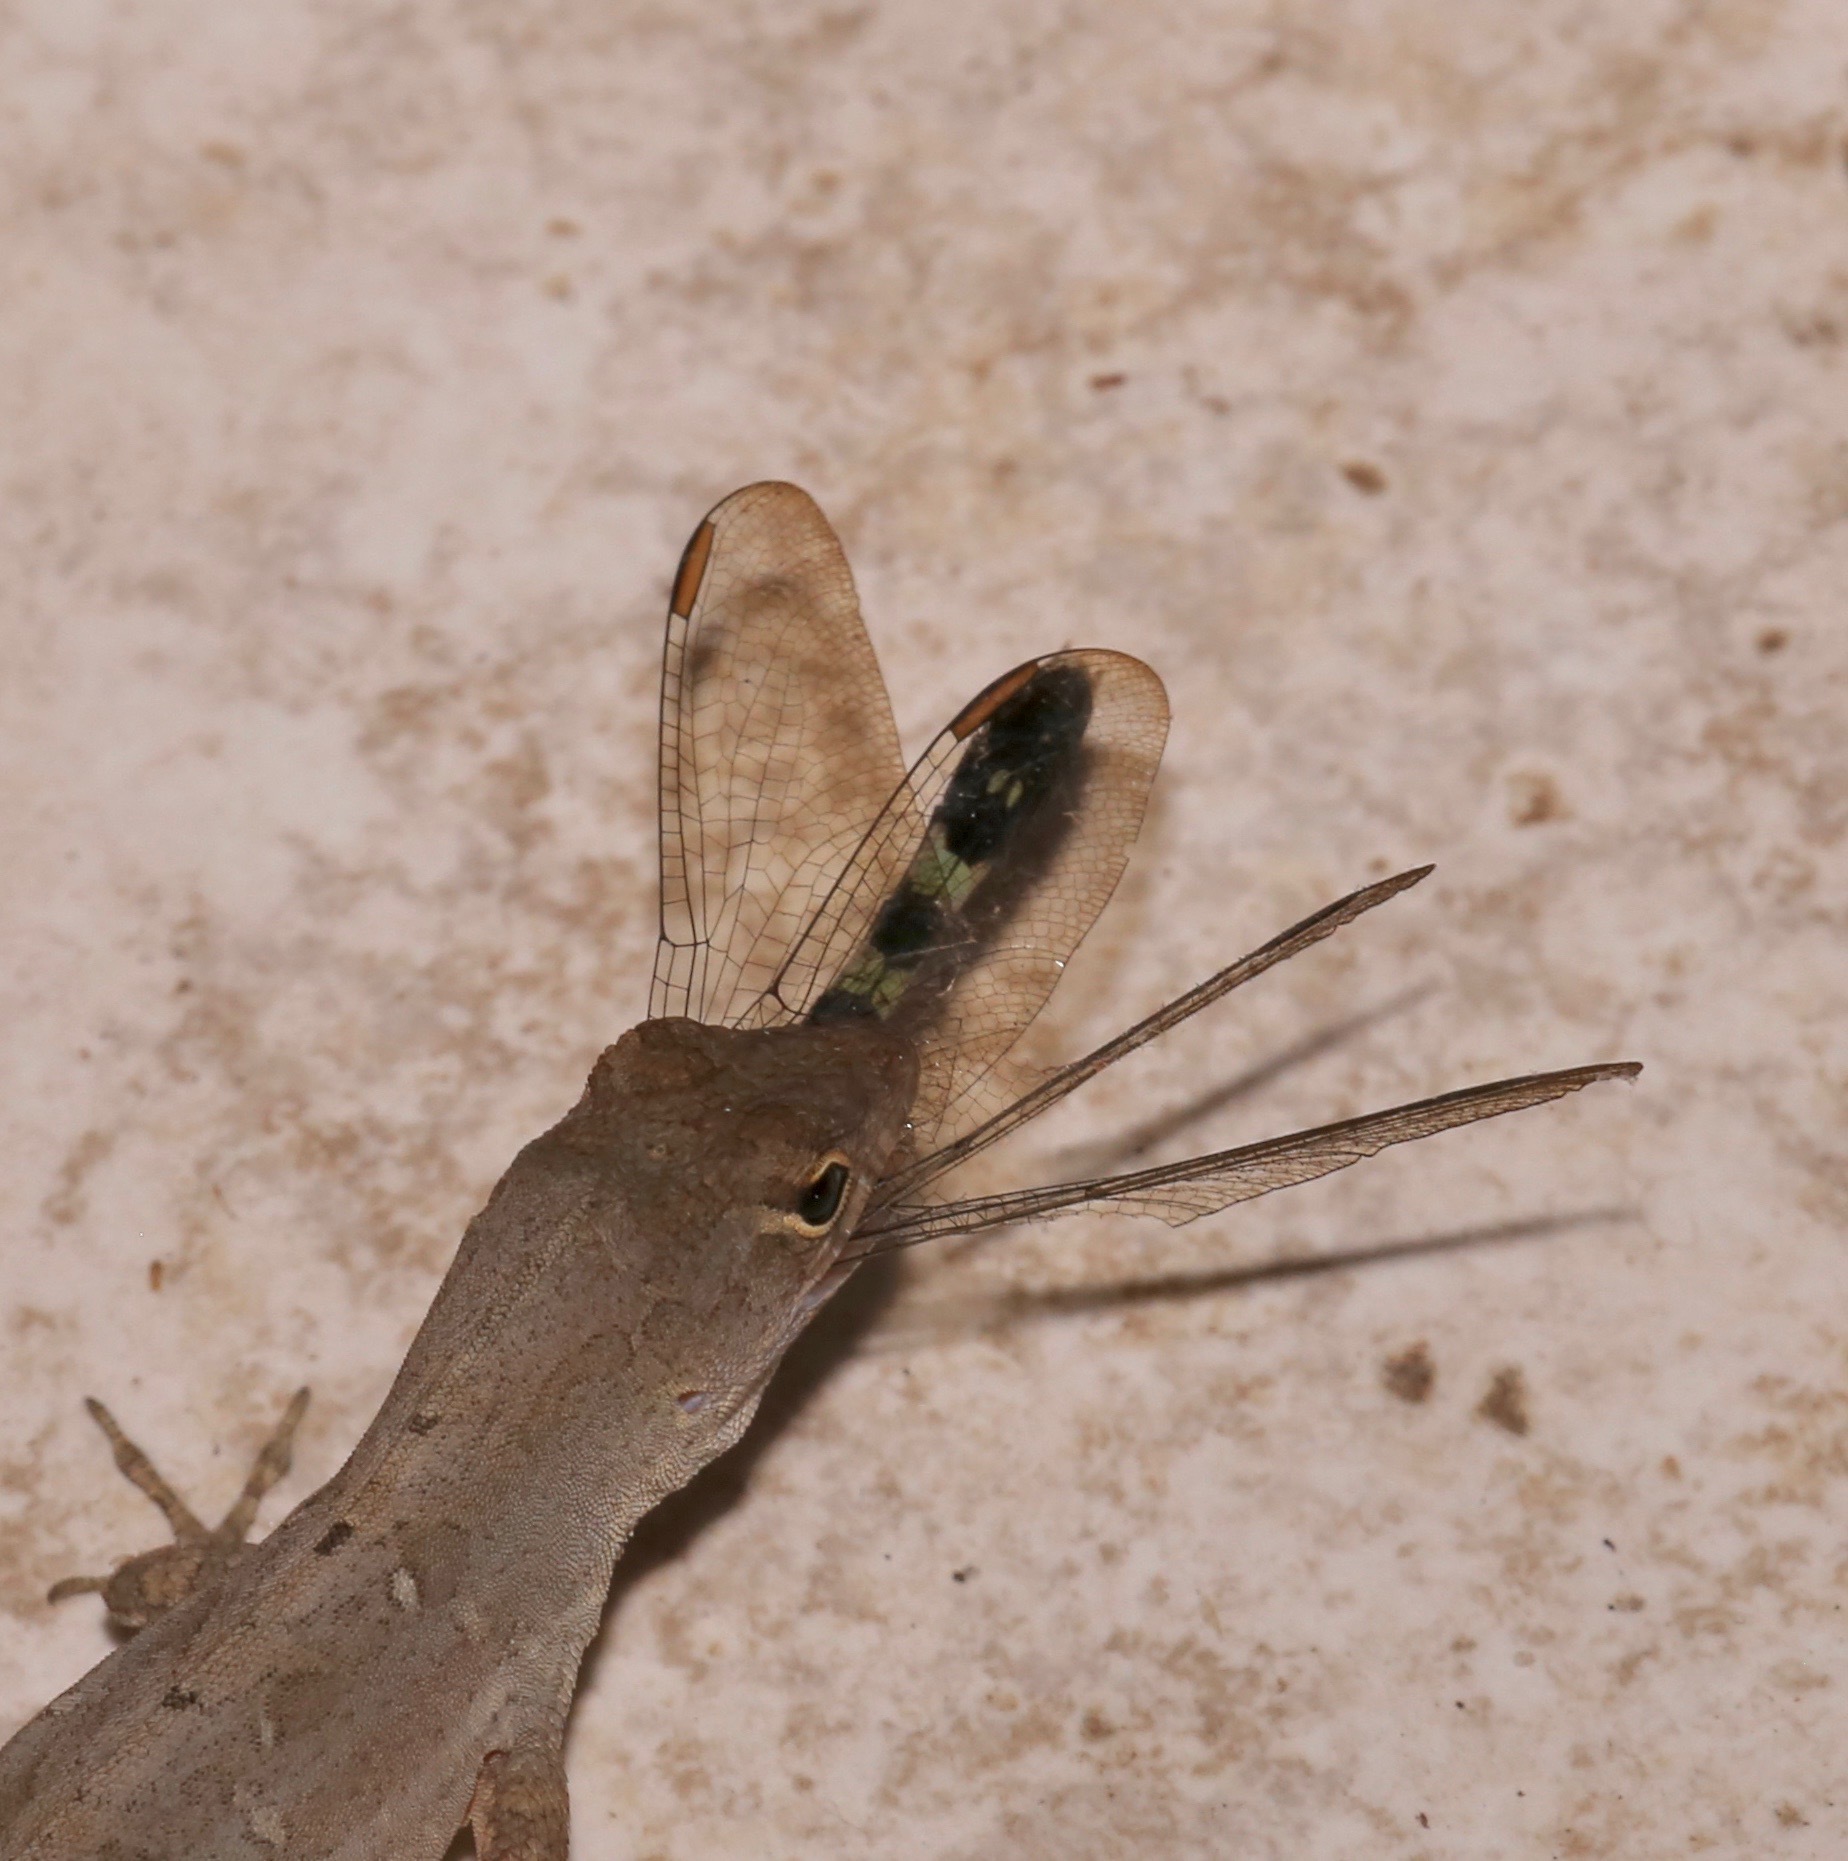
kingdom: Animalia
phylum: Arthropoda
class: Insecta
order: Odonata
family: Libellulidae
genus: Erythemis
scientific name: Erythemis simplicicollis
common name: Eastern pondhawk
